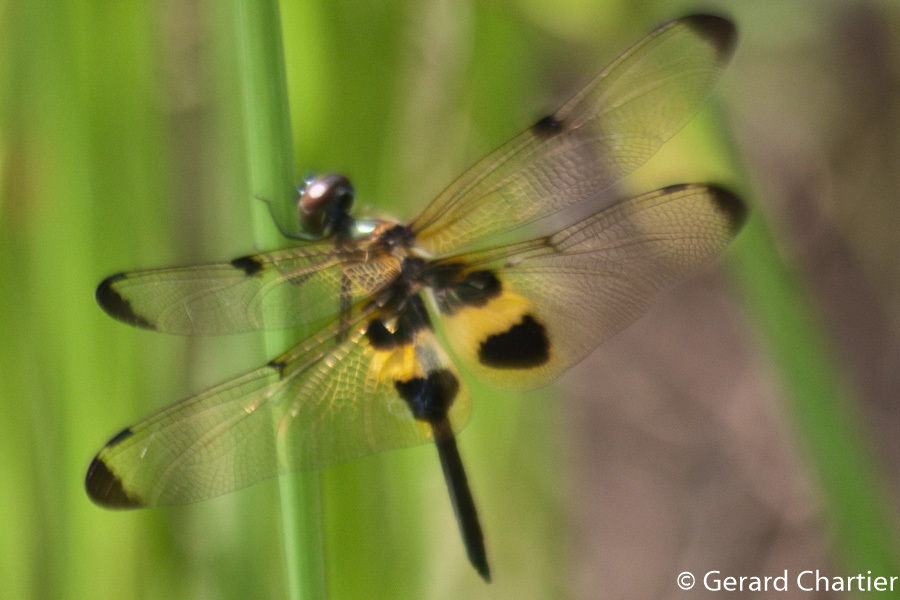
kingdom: Animalia
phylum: Arthropoda
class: Insecta
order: Odonata
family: Libellulidae
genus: Rhyothemis
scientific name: Rhyothemis phyllis
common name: Yellow-barred flutterer
